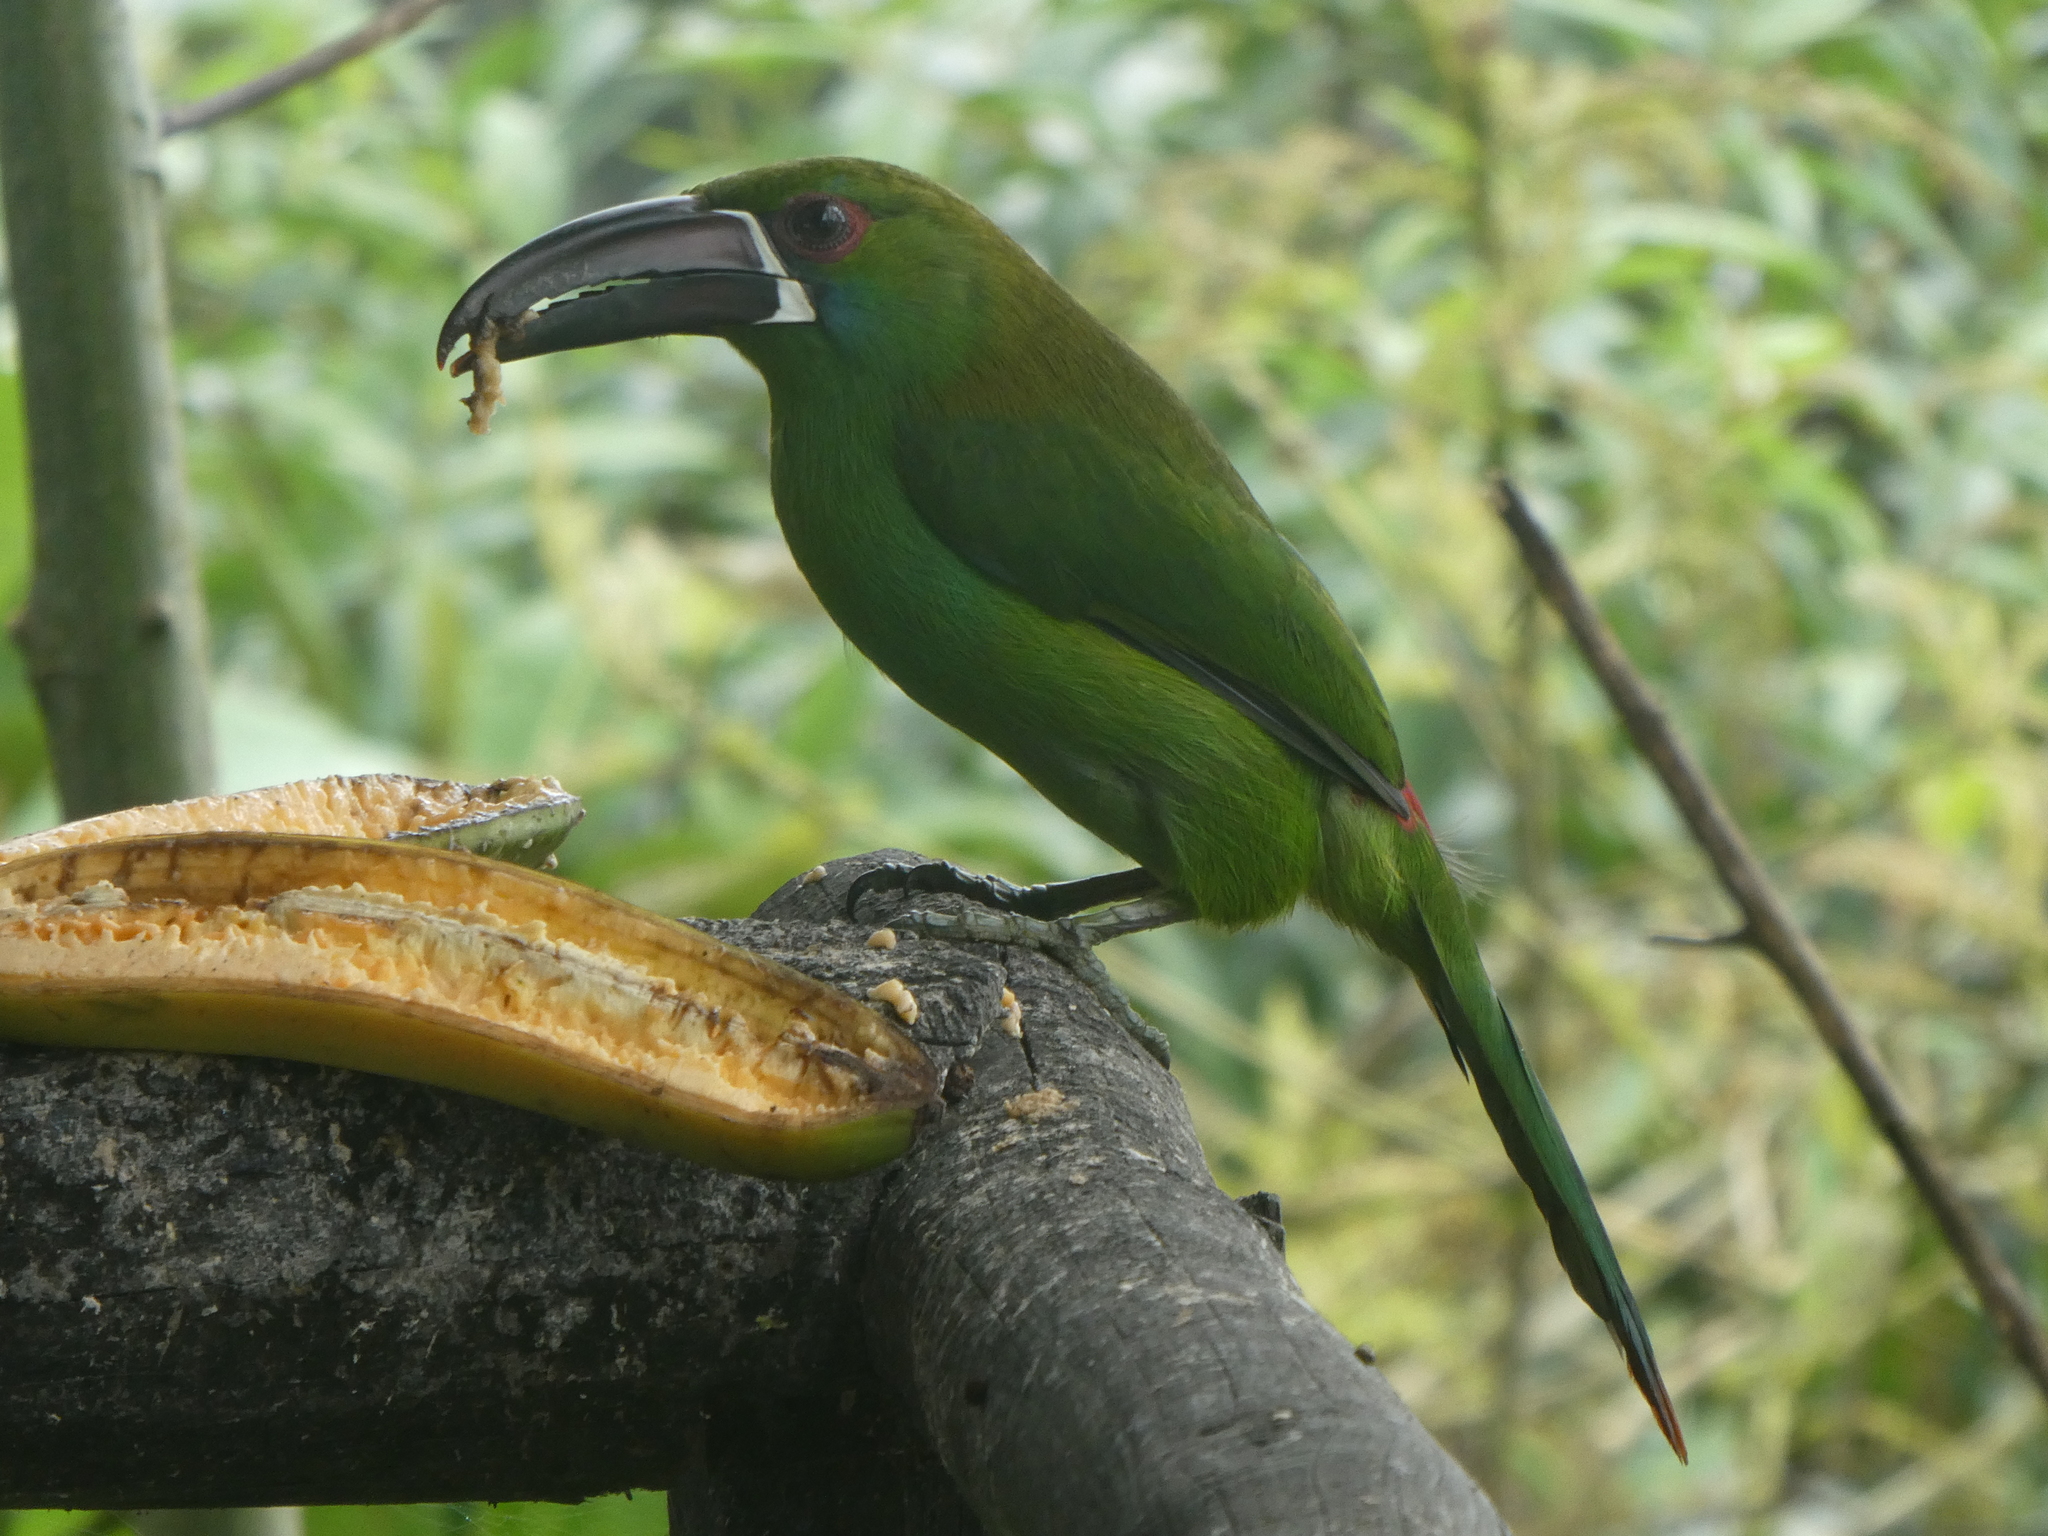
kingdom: Animalia
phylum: Chordata
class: Aves
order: Piciformes
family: Ramphastidae
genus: Aulacorhynchus
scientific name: Aulacorhynchus haematopygus
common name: Crimson-rumped toucanet
